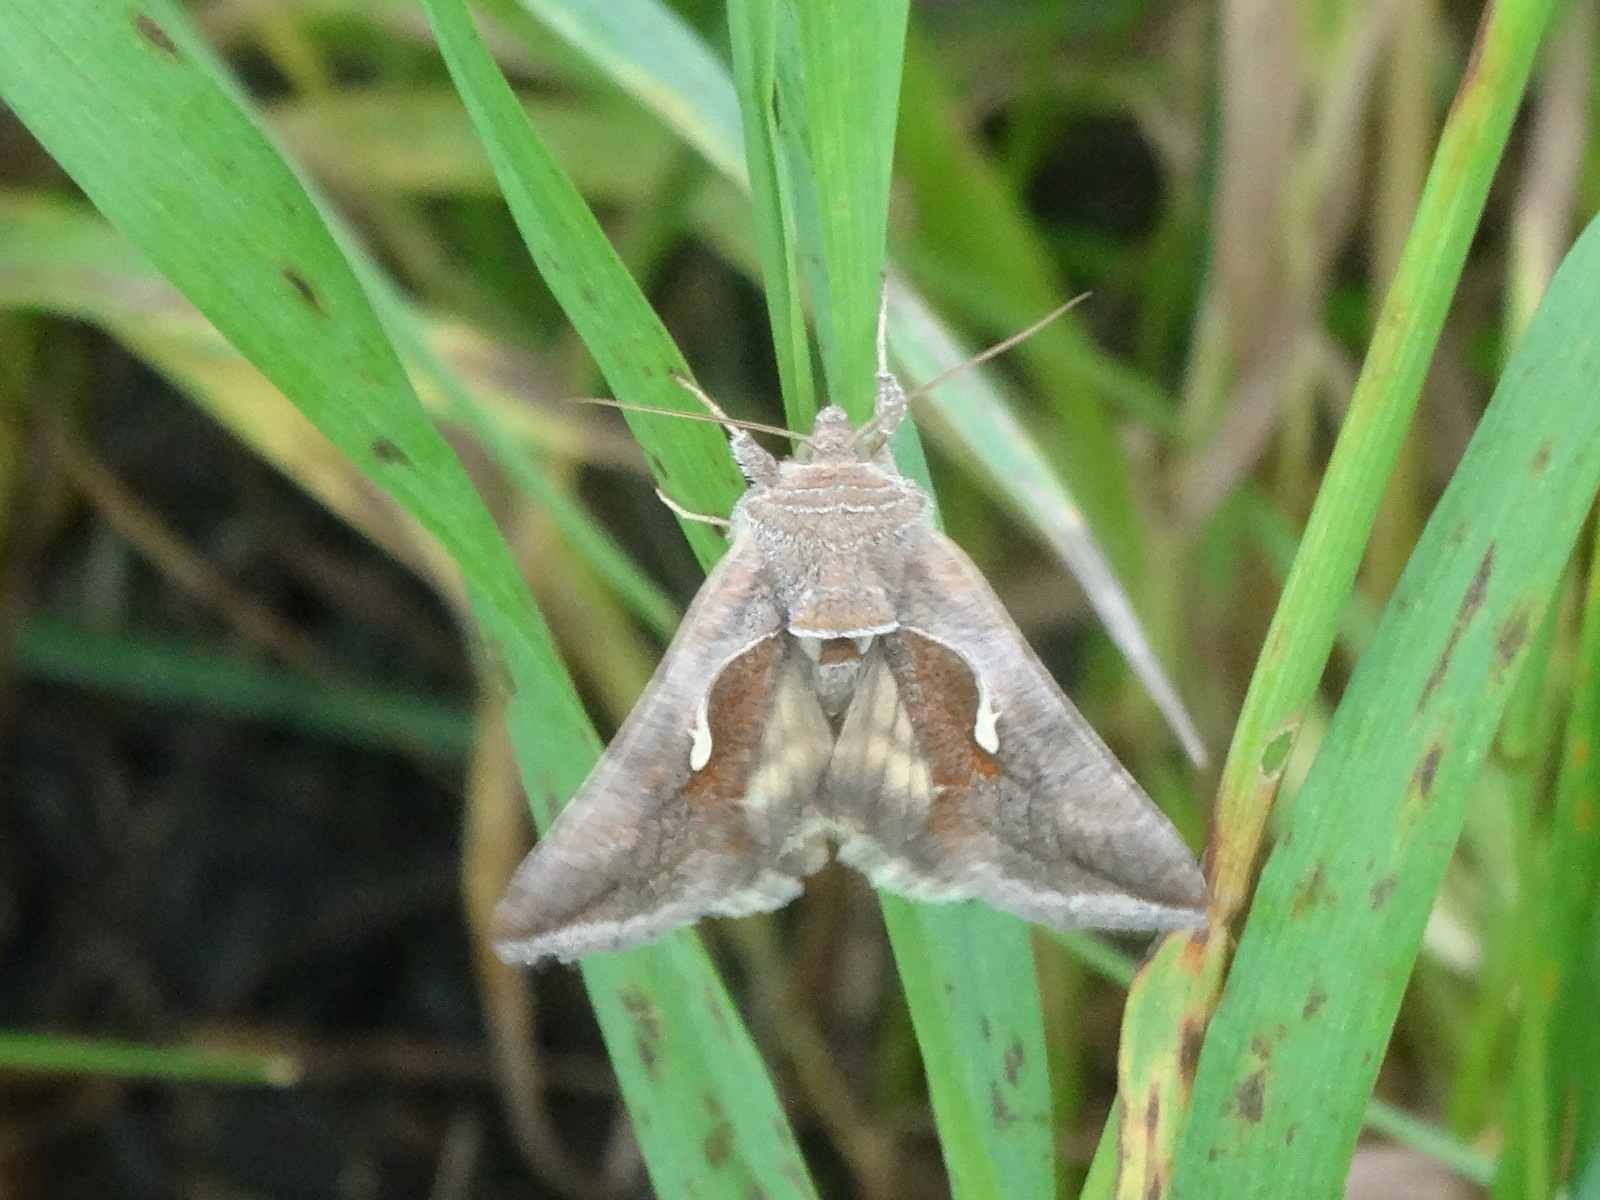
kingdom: Animalia
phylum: Arthropoda
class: Insecta
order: Lepidoptera
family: Noctuidae
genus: Anagrapha
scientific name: Anagrapha falcifera
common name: Celery looper
